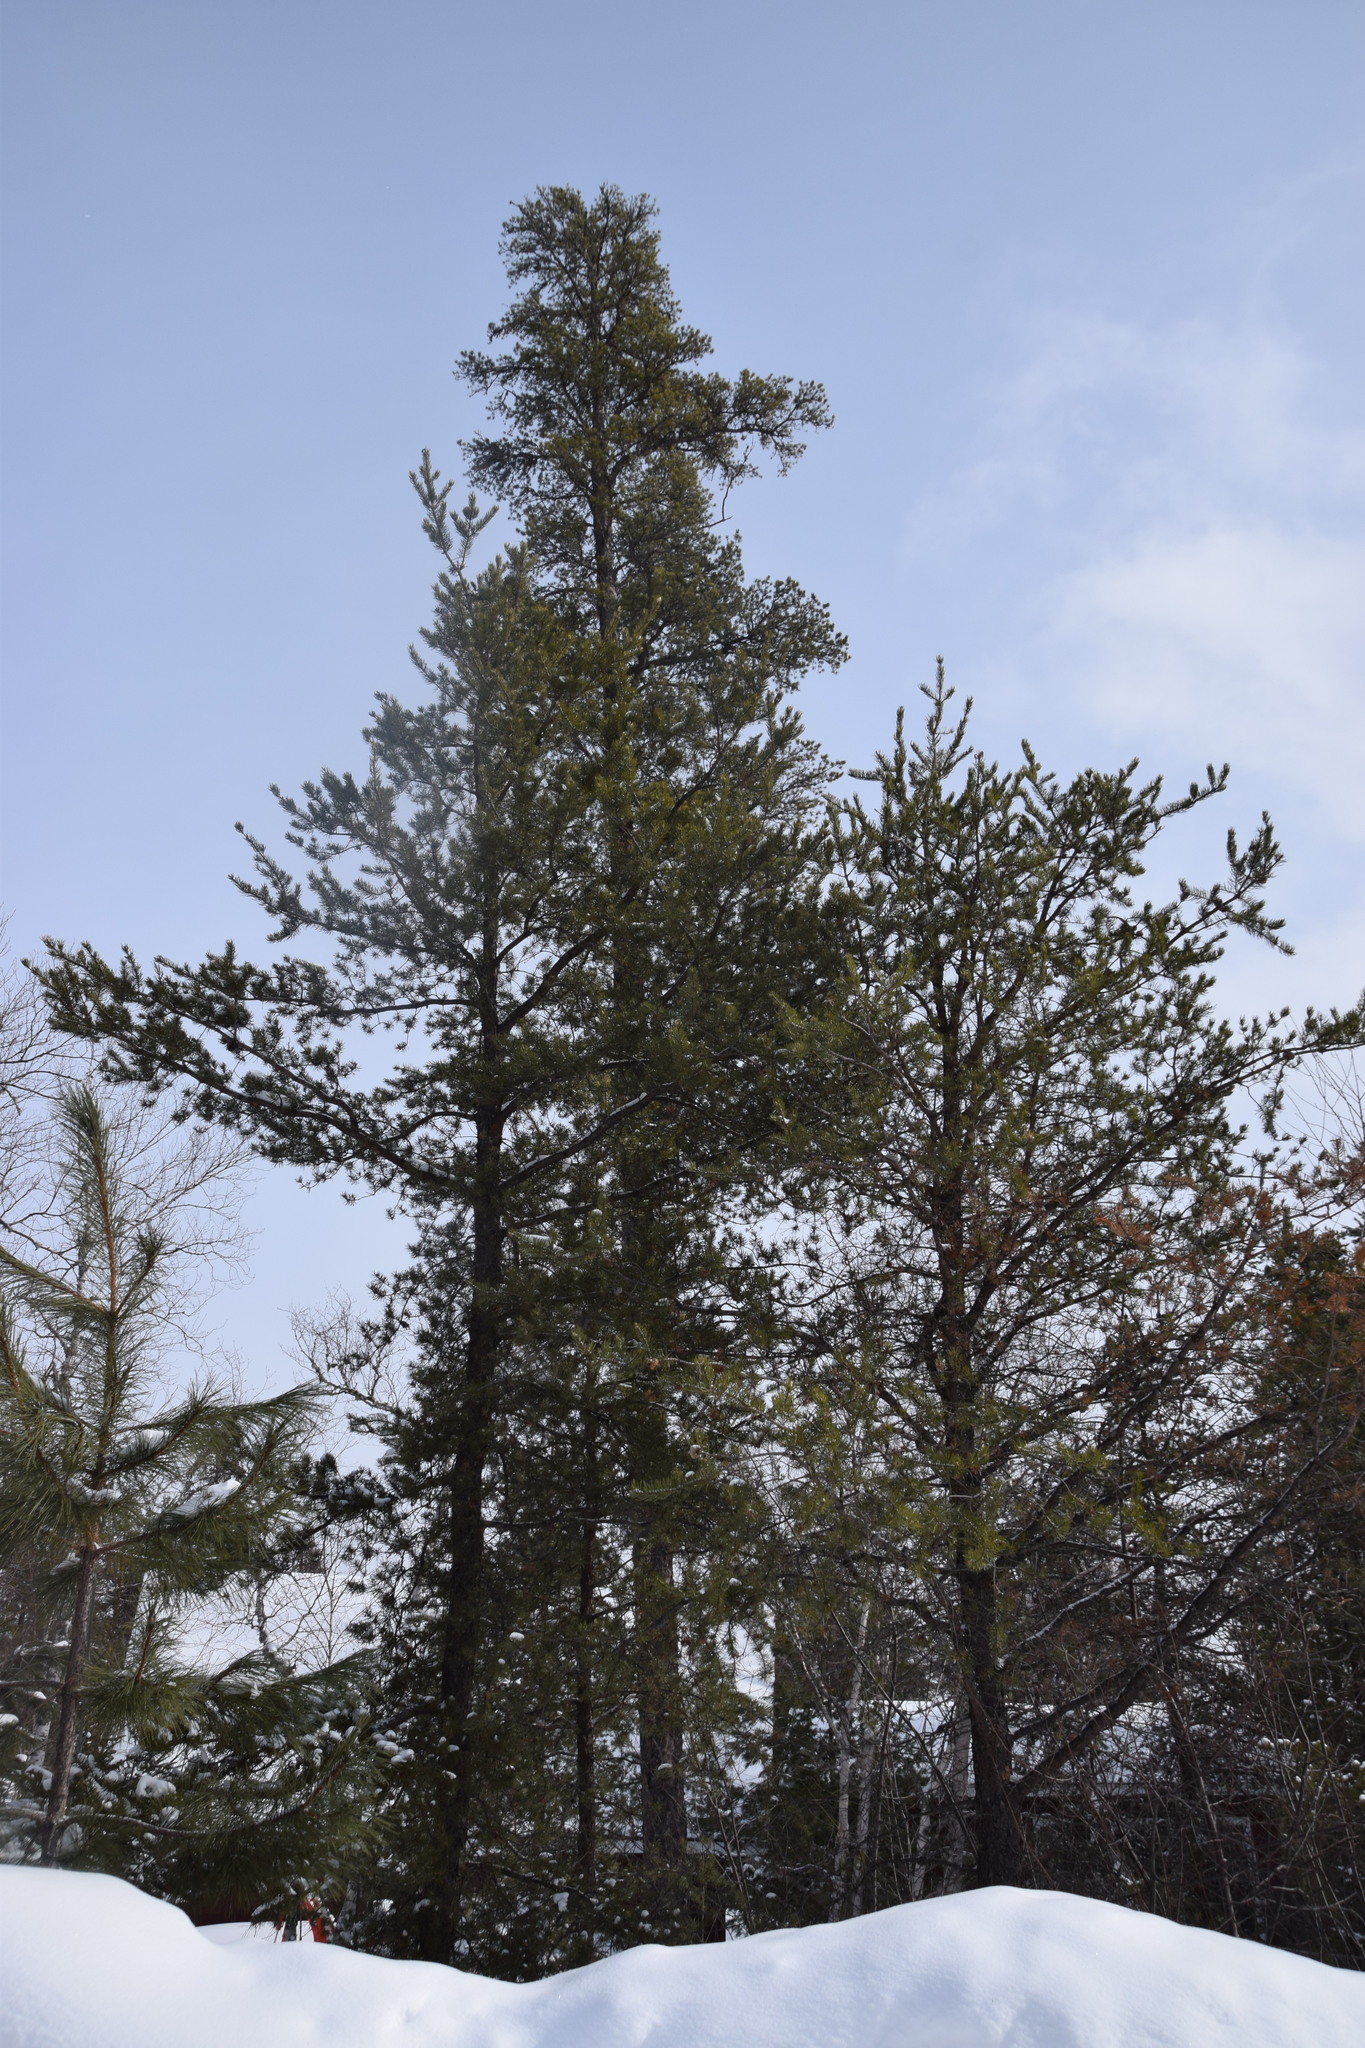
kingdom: Plantae
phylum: Tracheophyta
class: Pinopsida
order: Pinales
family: Pinaceae
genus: Pinus
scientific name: Pinus banksiana
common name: Jack pine
